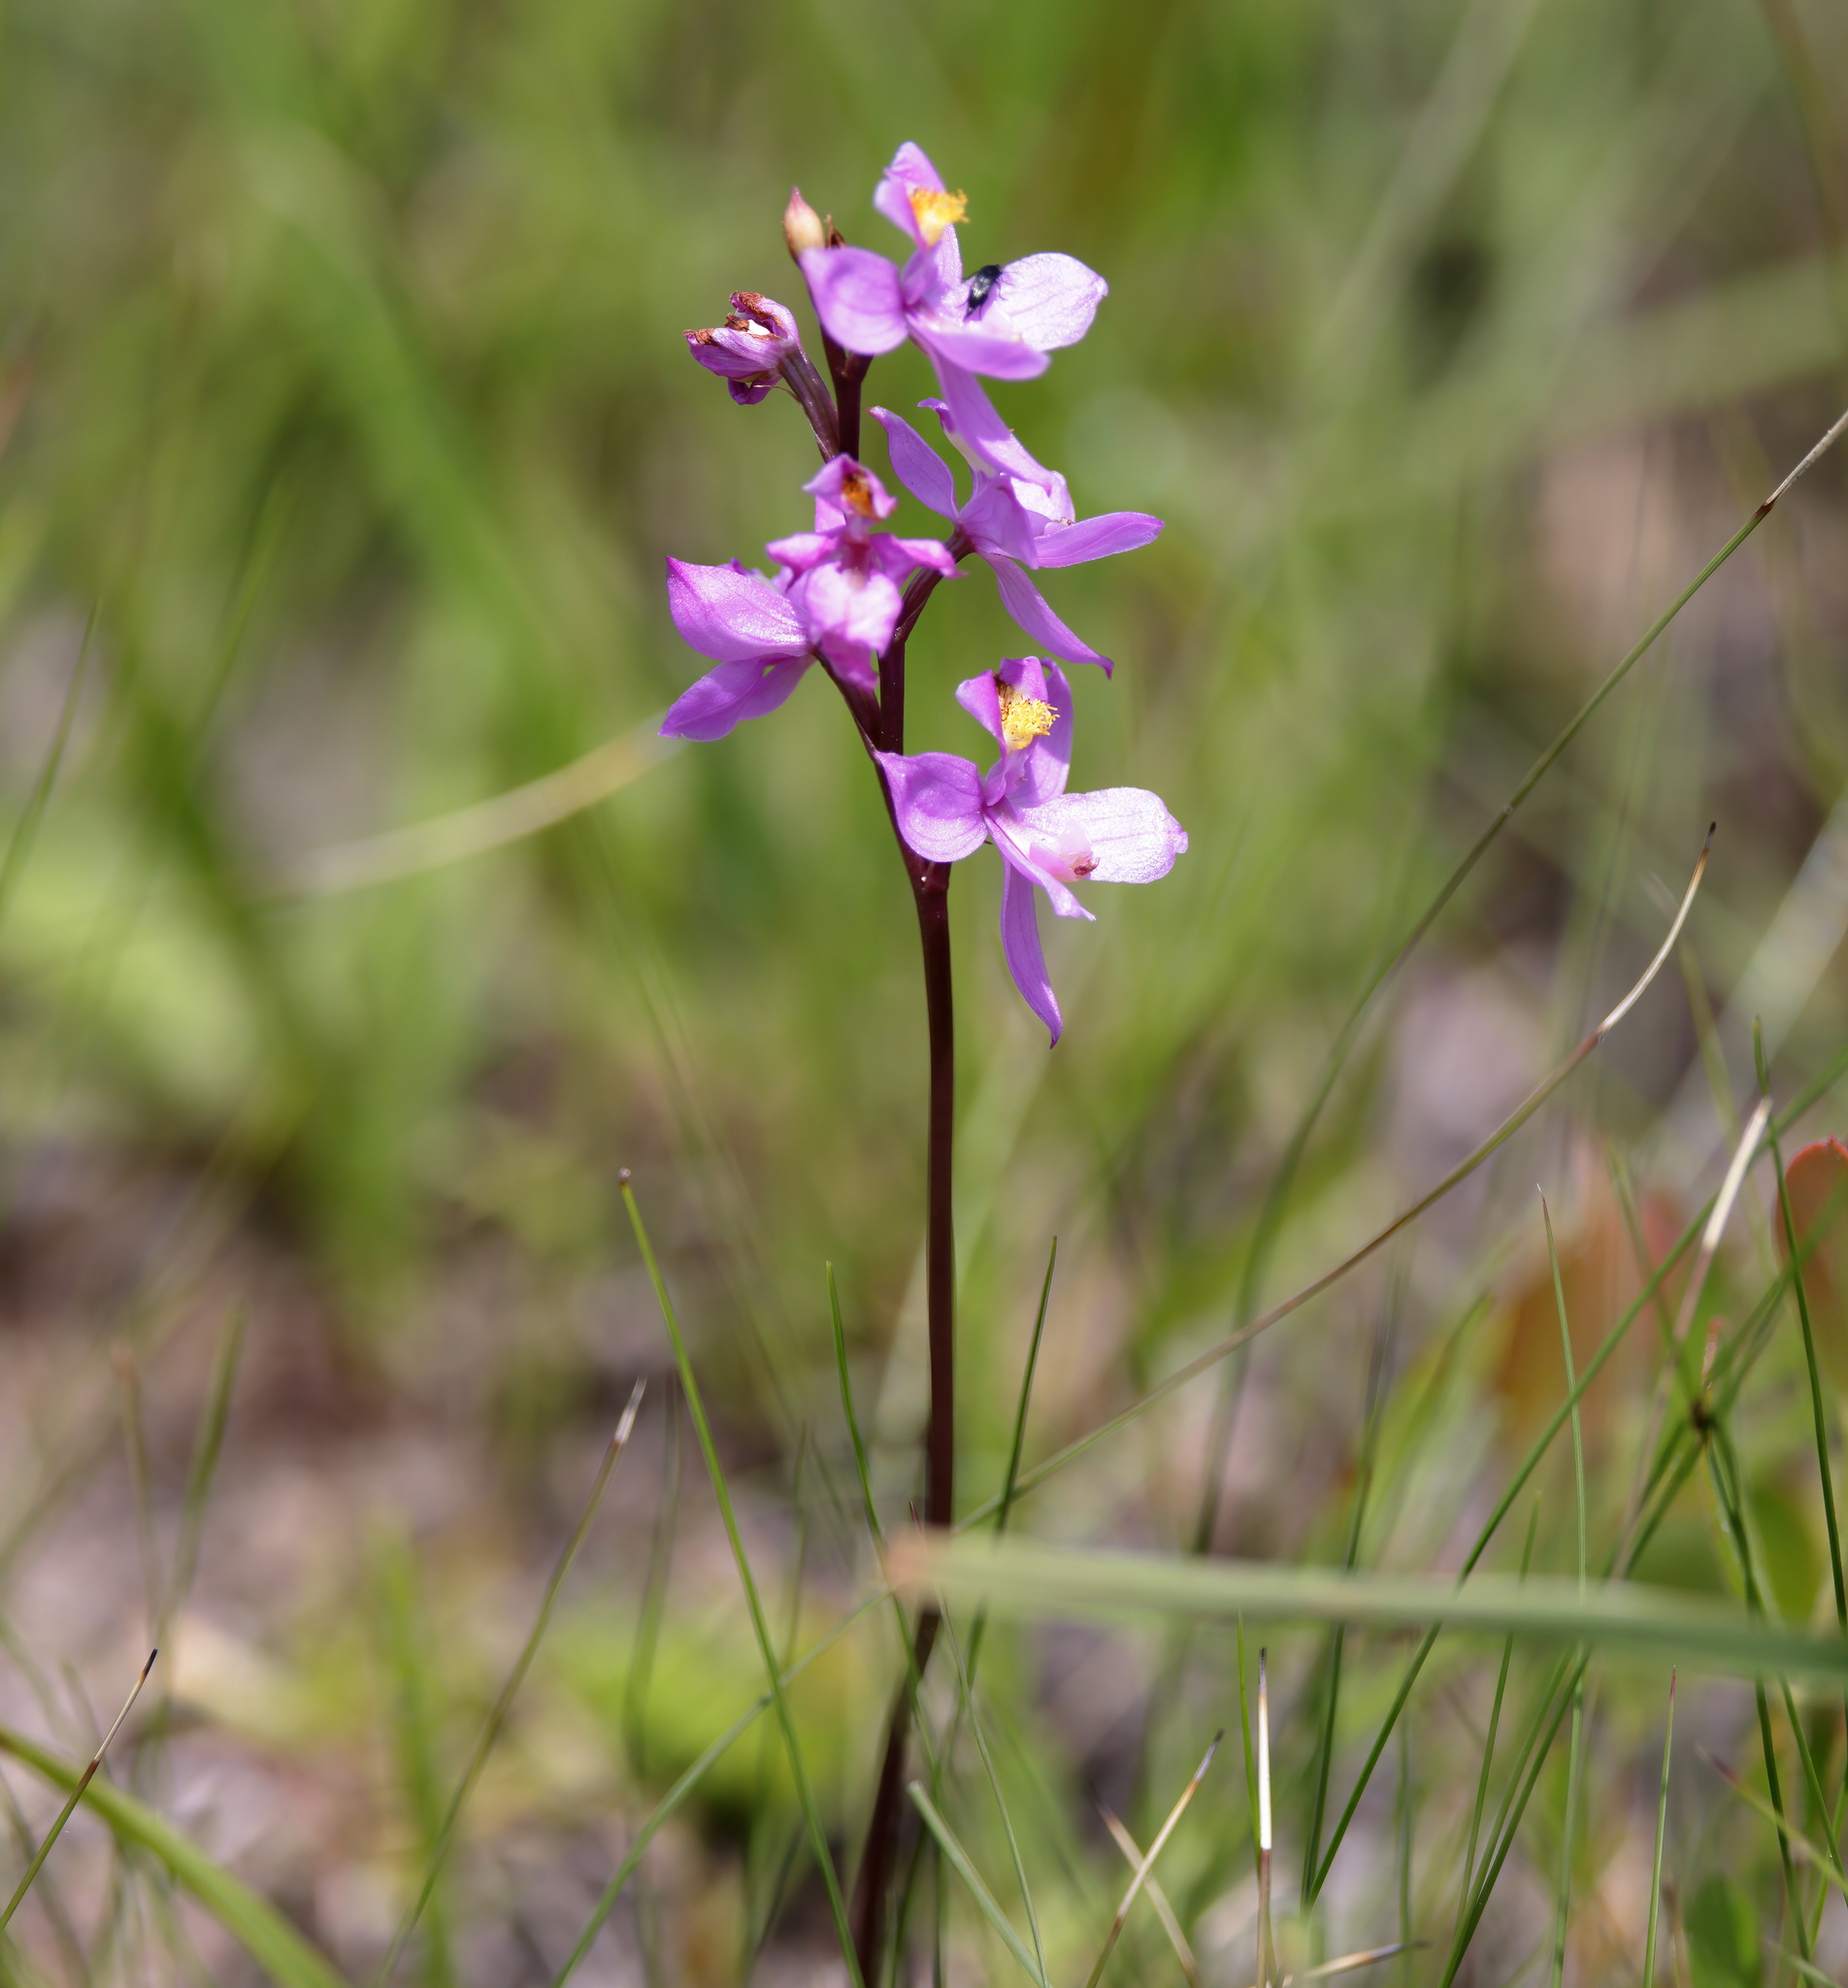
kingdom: Plantae
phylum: Tracheophyta
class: Liliopsida
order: Asparagales
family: Orchidaceae
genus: Calopogon
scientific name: Calopogon multiflorus
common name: Many-flowered grass-pink orchid
